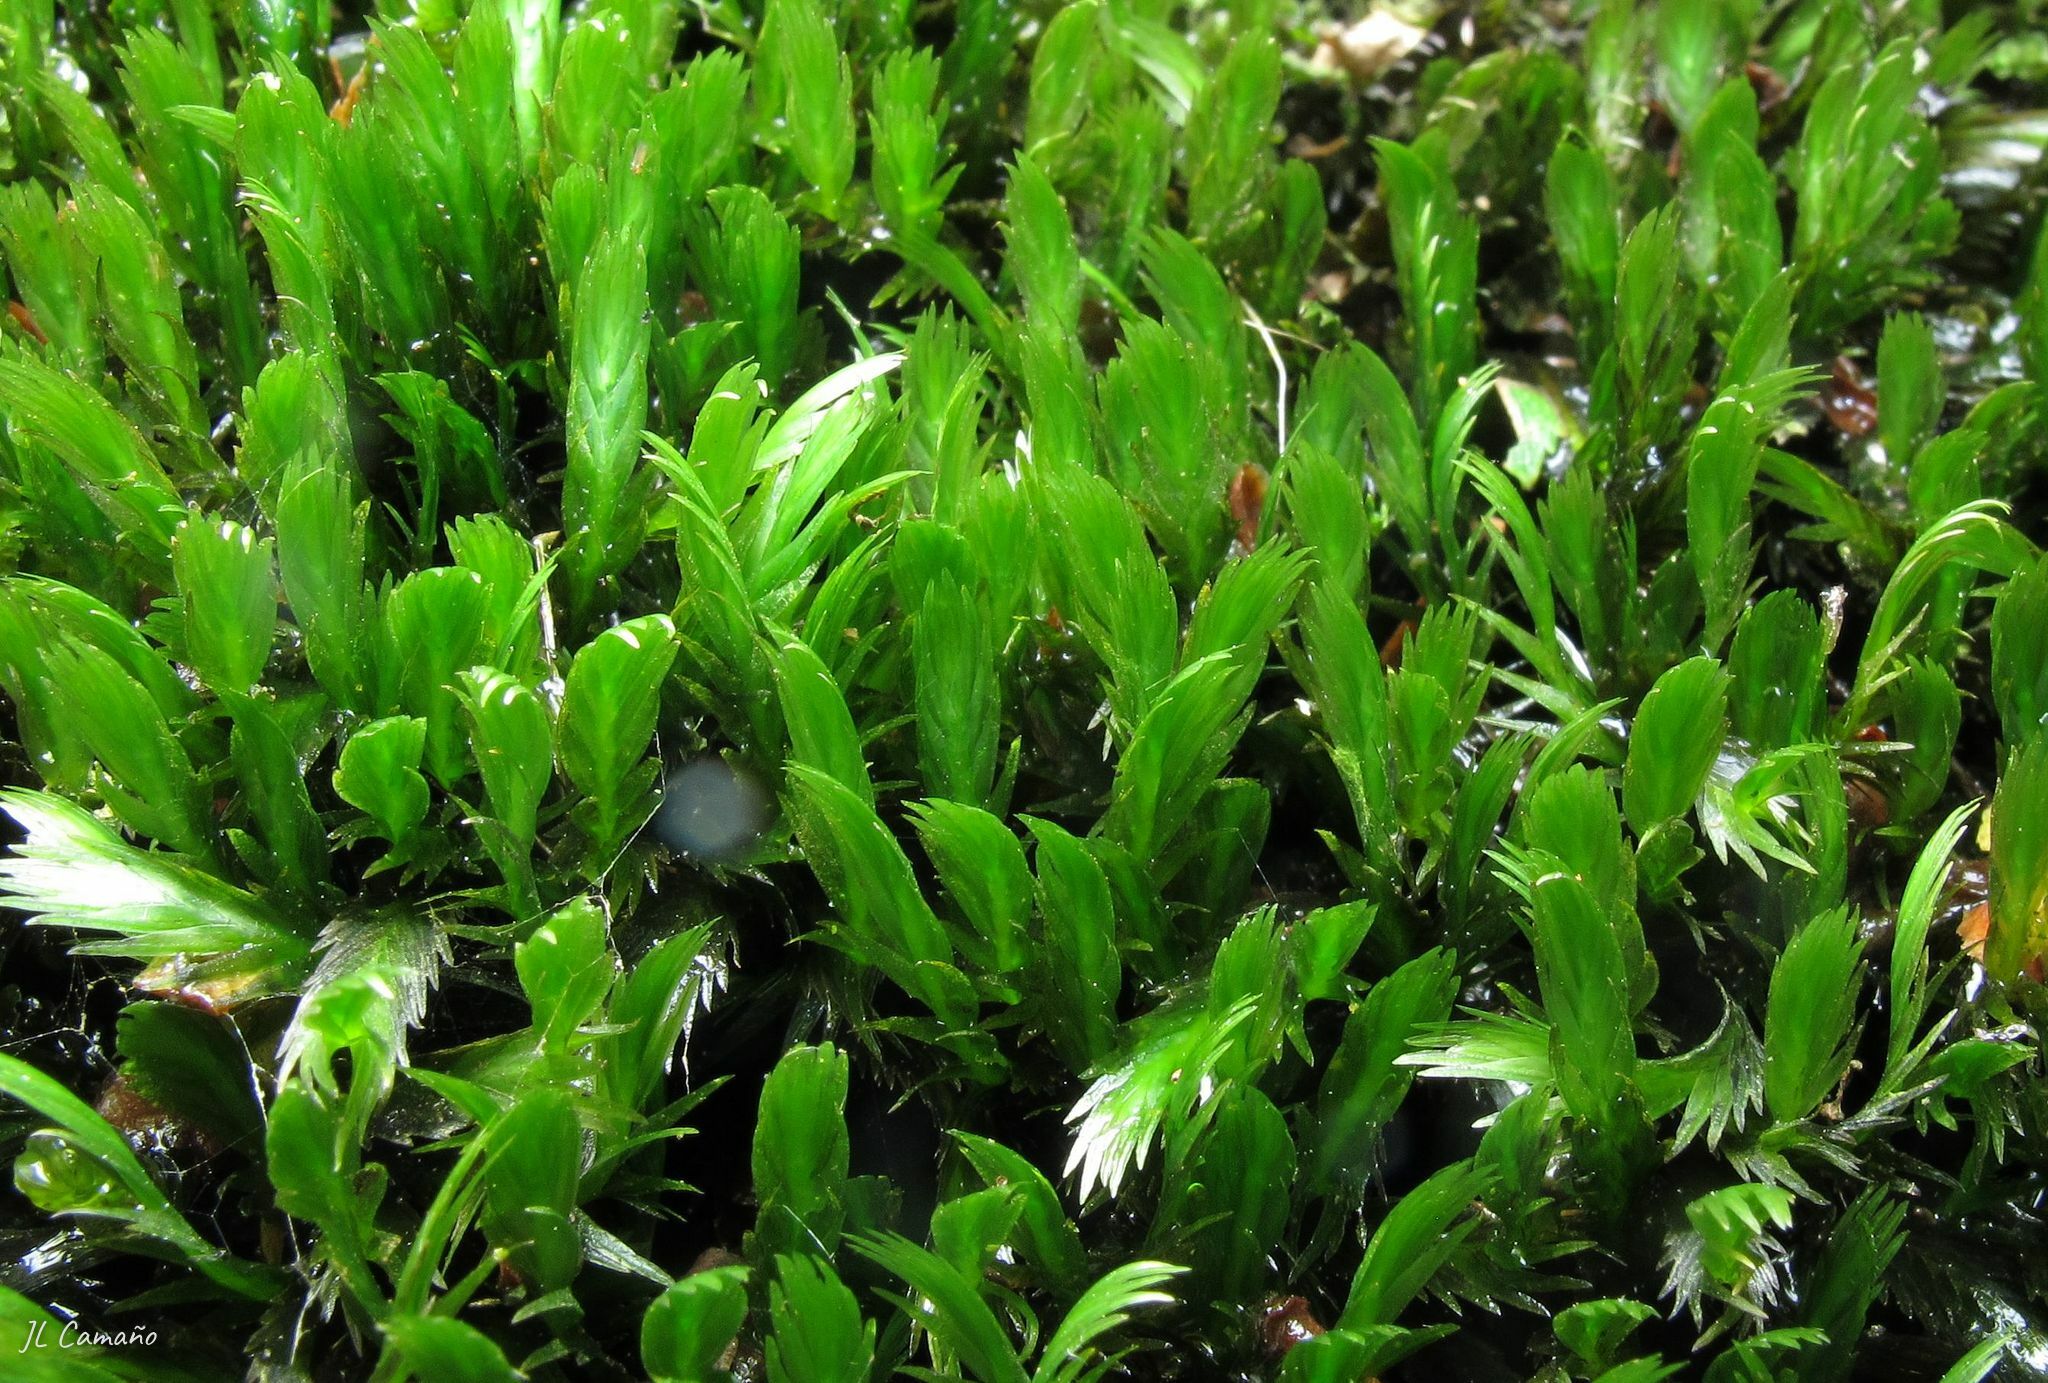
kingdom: Plantae
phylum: Bryophyta
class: Bryopsida
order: Dicranales
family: Fissidentaceae
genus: Fissidens
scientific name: Fissidens polyphyllus
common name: Many-leaved pocket-moss
